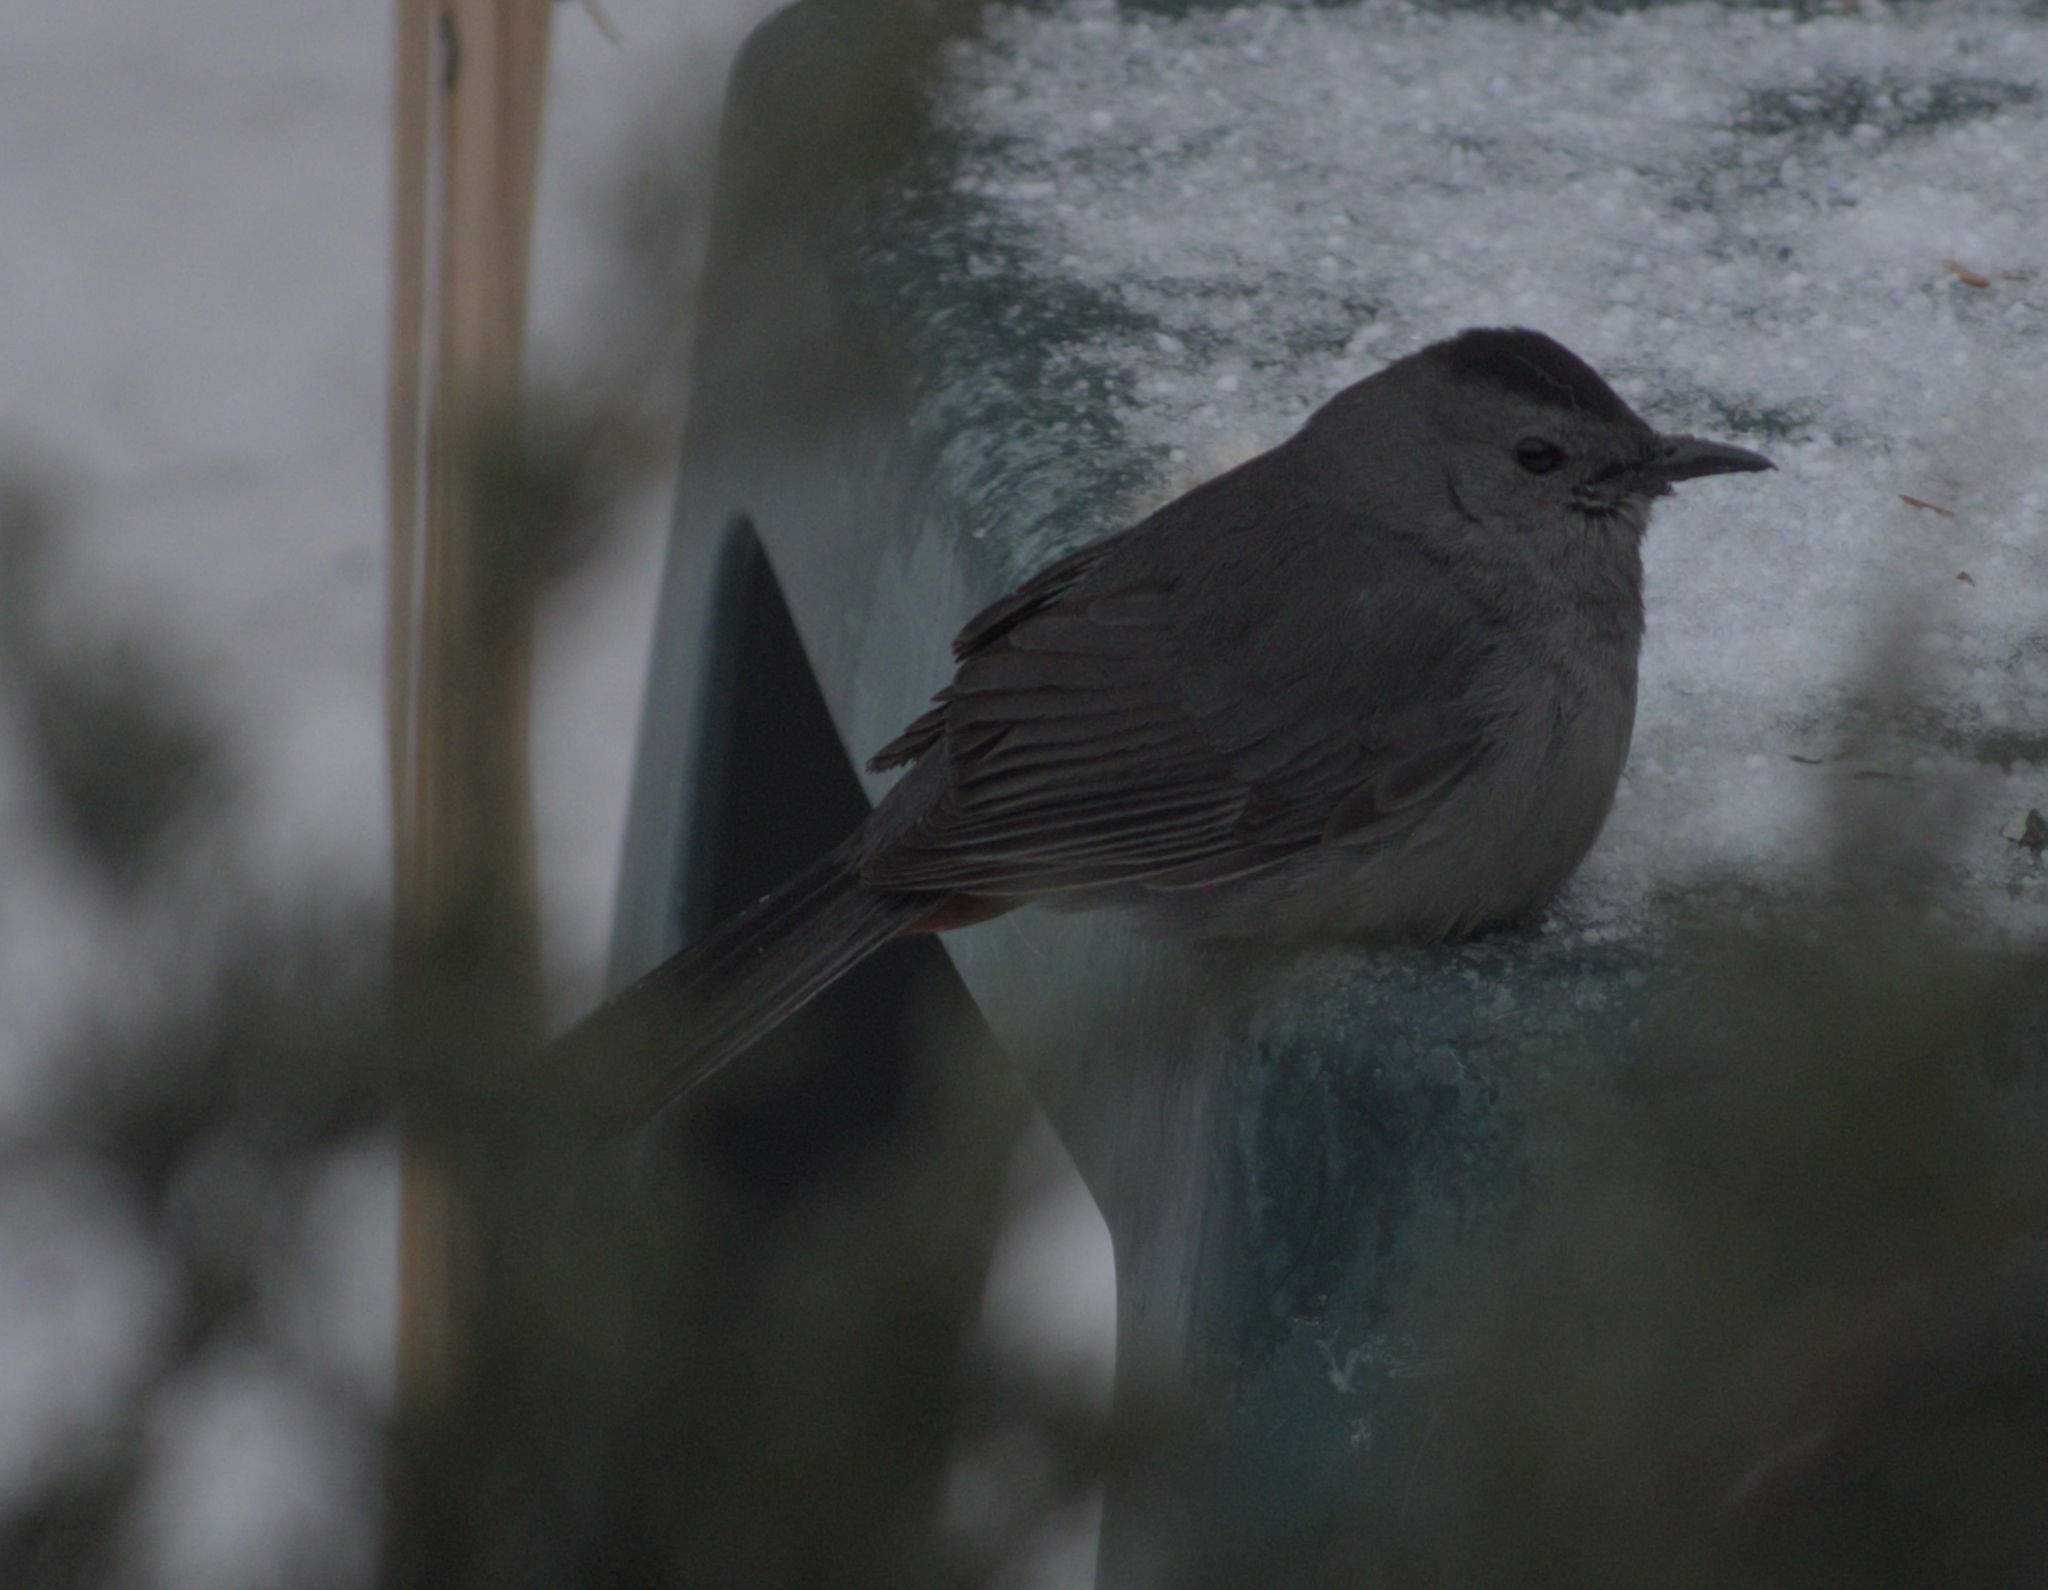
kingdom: Animalia
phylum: Chordata
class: Aves
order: Passeriformes
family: Mimidae
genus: Dumetella
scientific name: Dumetella carolinensis
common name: Gray catbird
